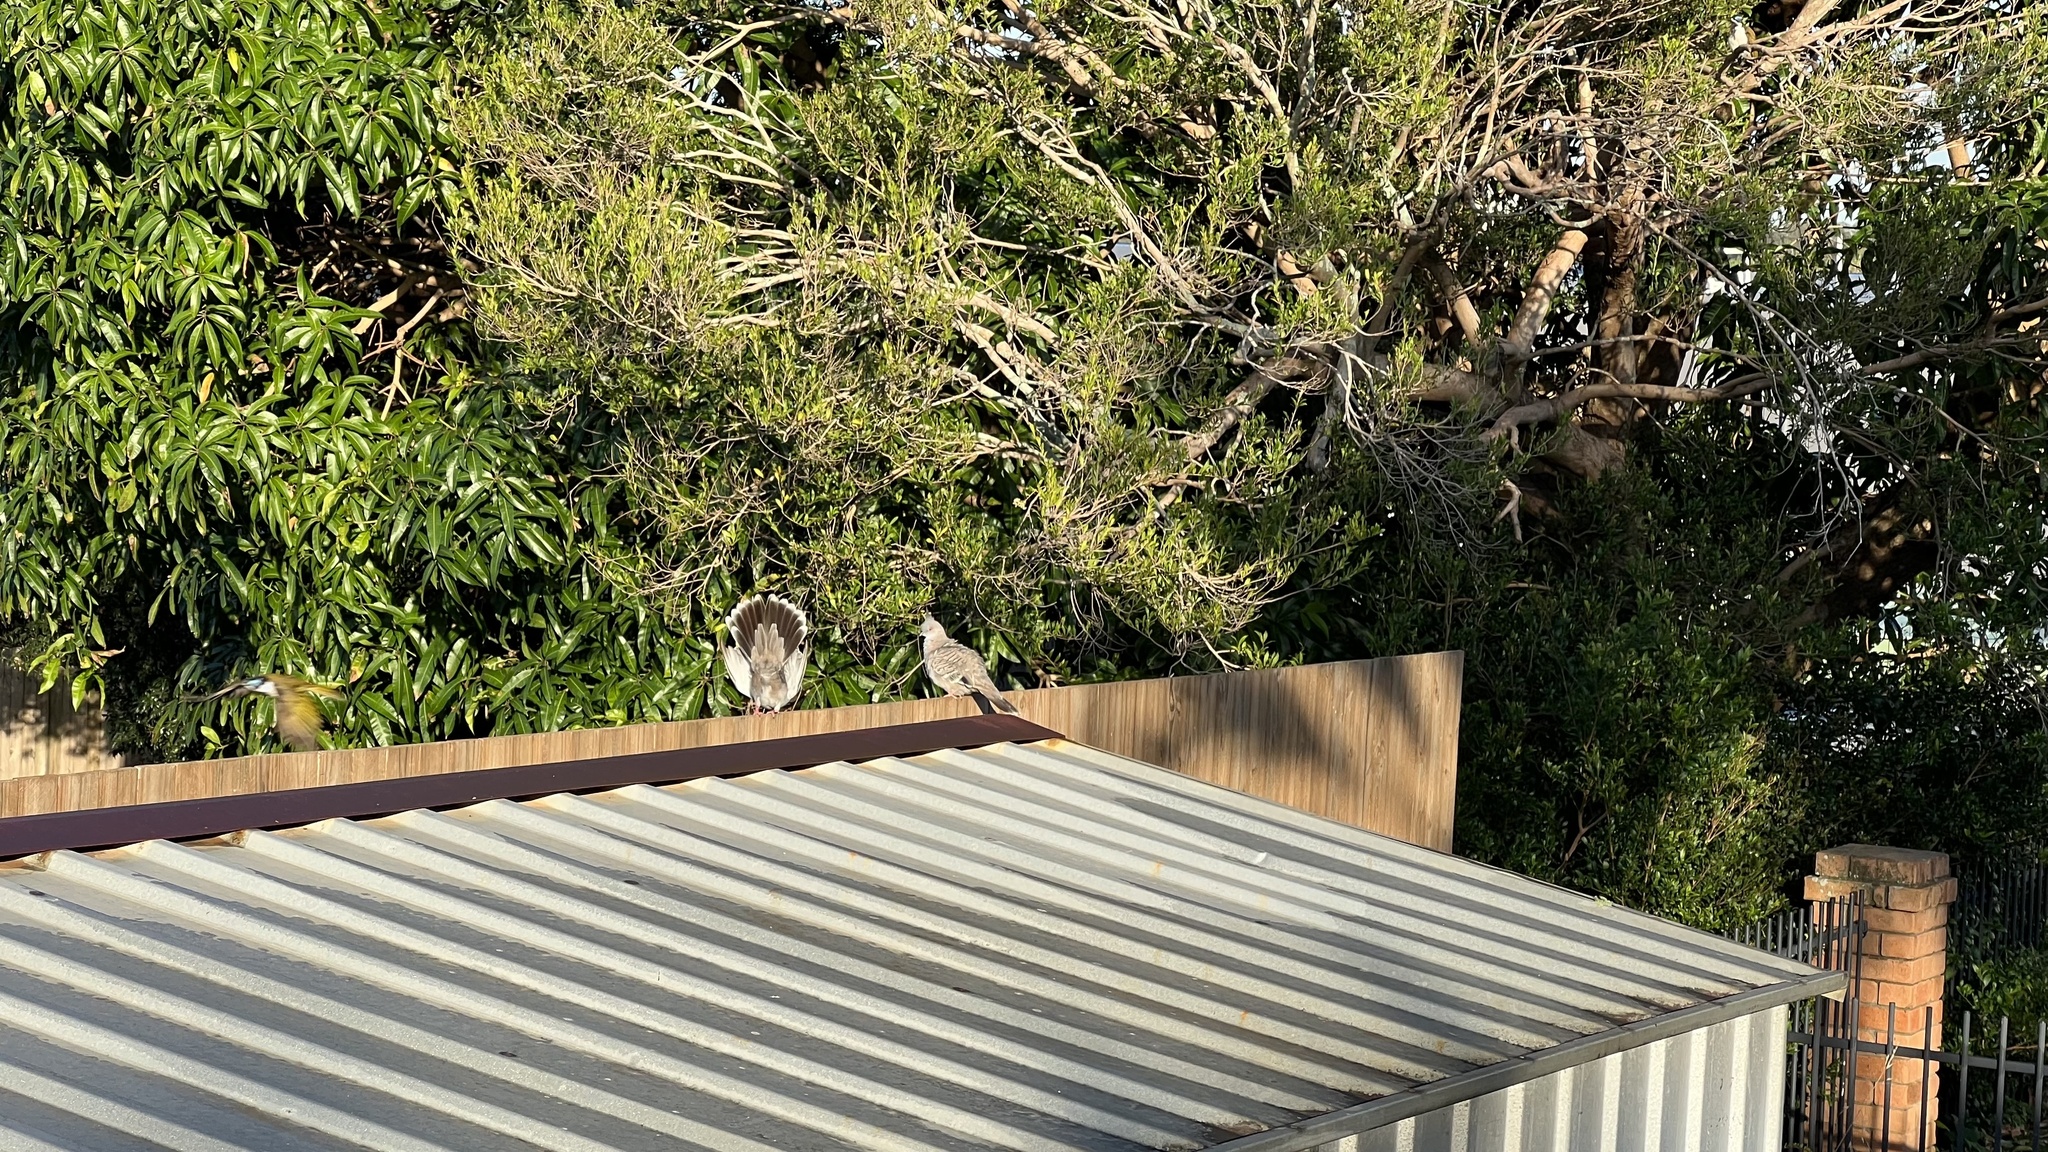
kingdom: Animalia
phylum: Chordata
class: Aves
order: Columbiformes
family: Columbidae
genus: Ocyphaps
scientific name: Ocyphaps lophotes
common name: Crested pigeon
